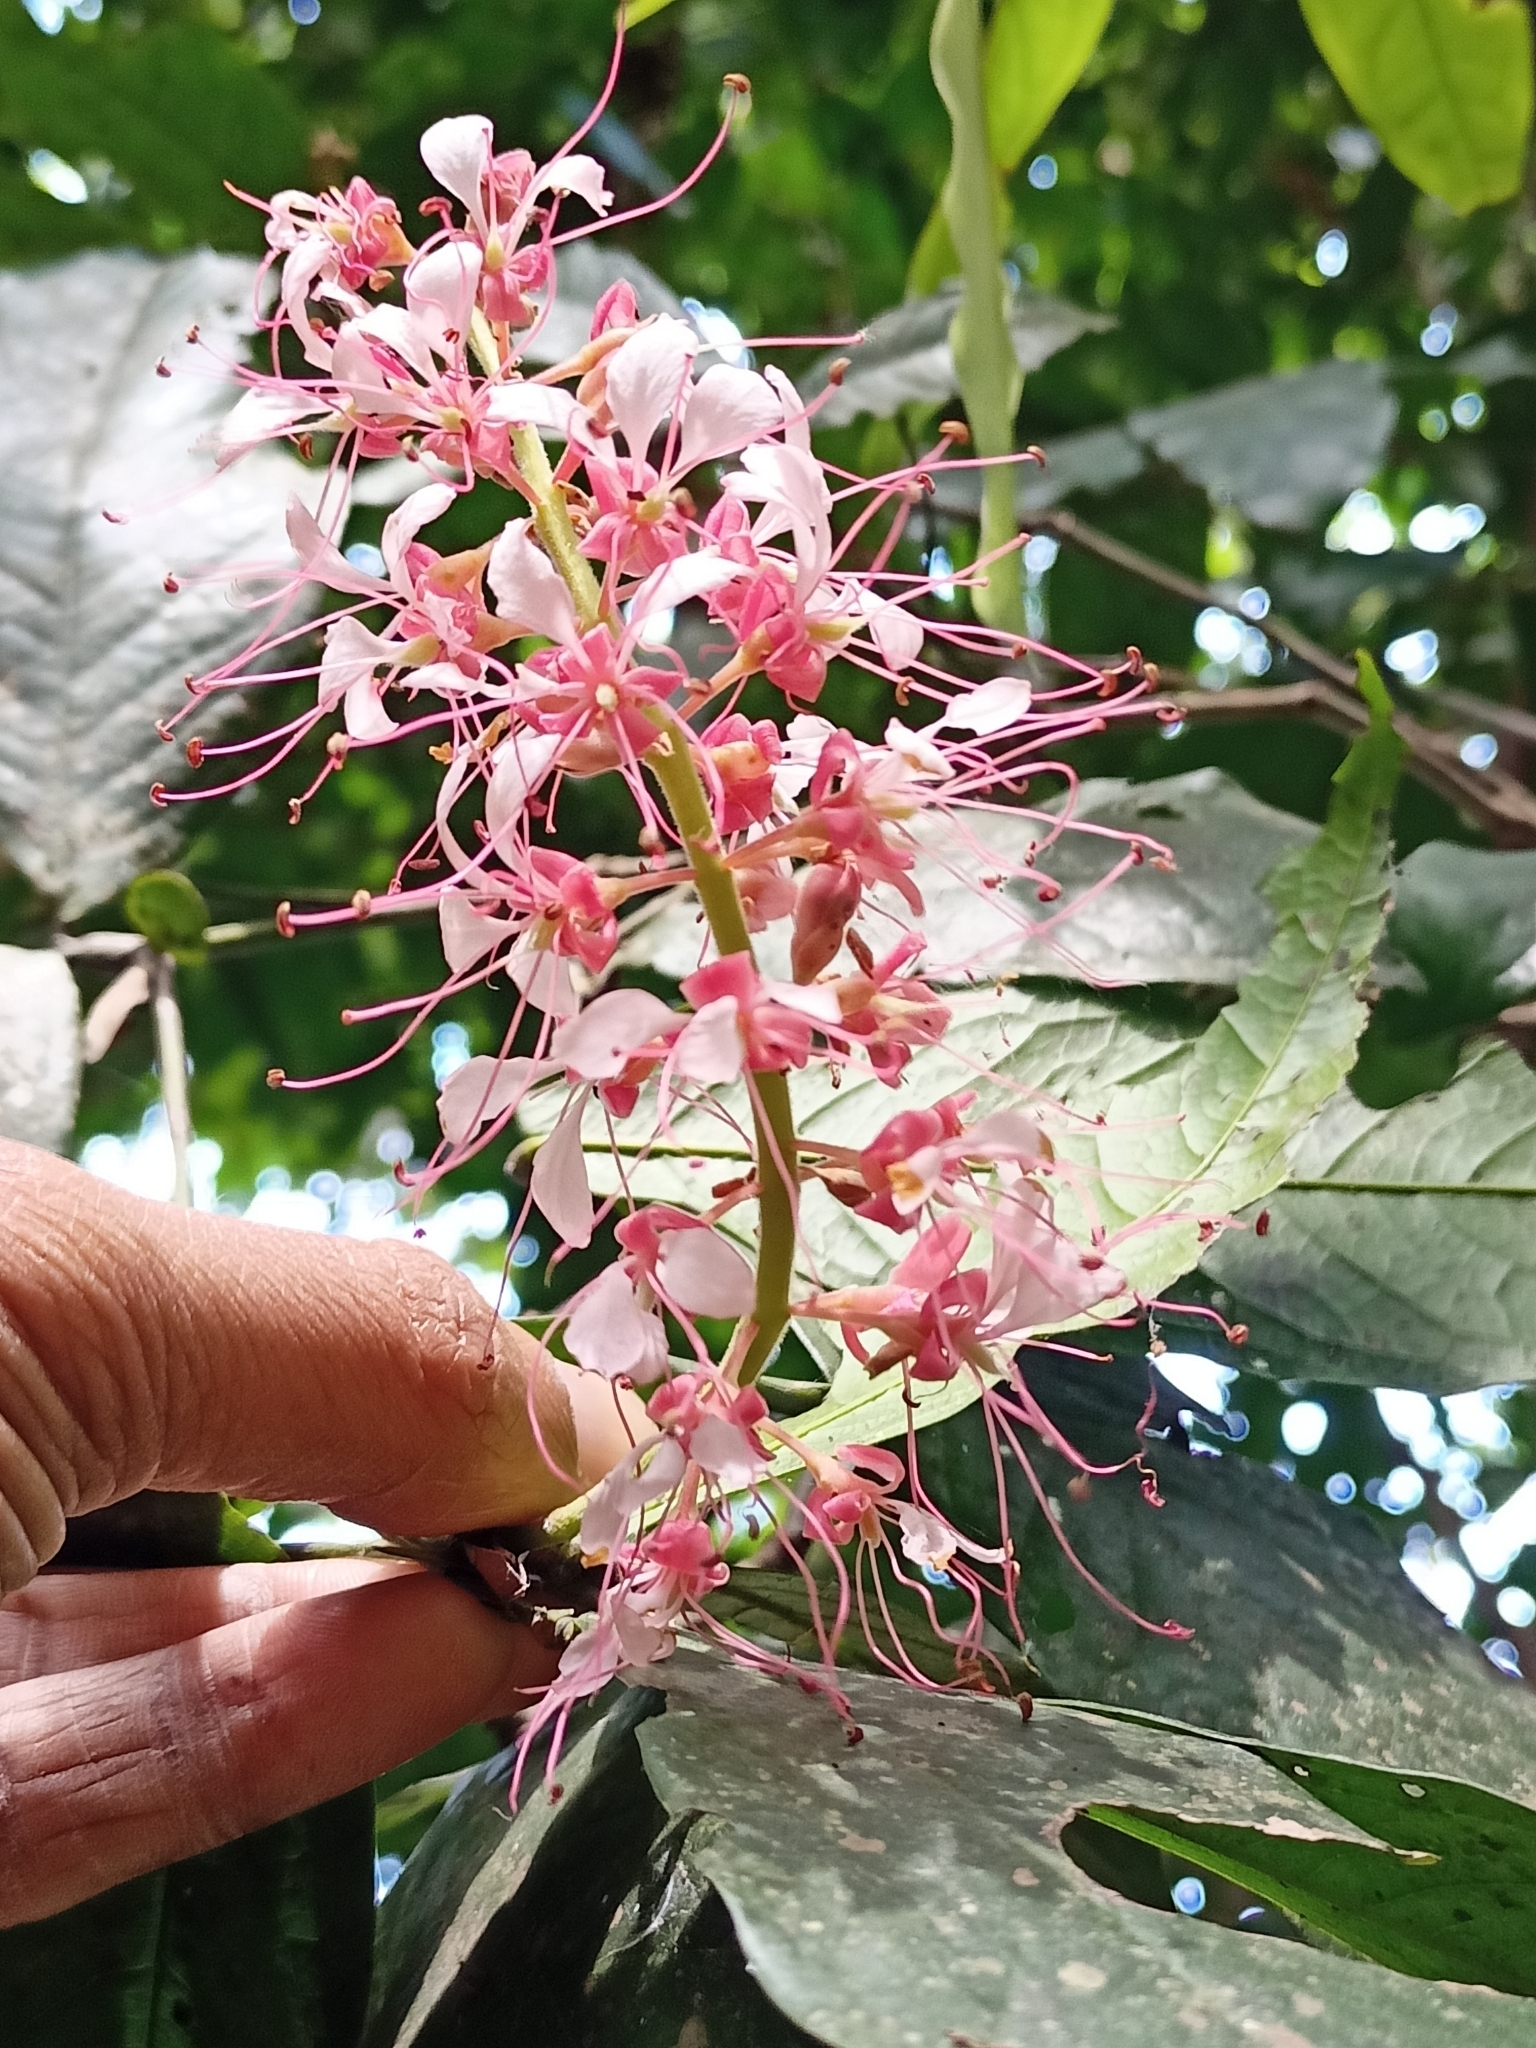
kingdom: Plantae
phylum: Tracheophyta
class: Magnoliopsida
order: Fabales
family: Fabaceae
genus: Humboldtia
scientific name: Humboldtia brunonis
